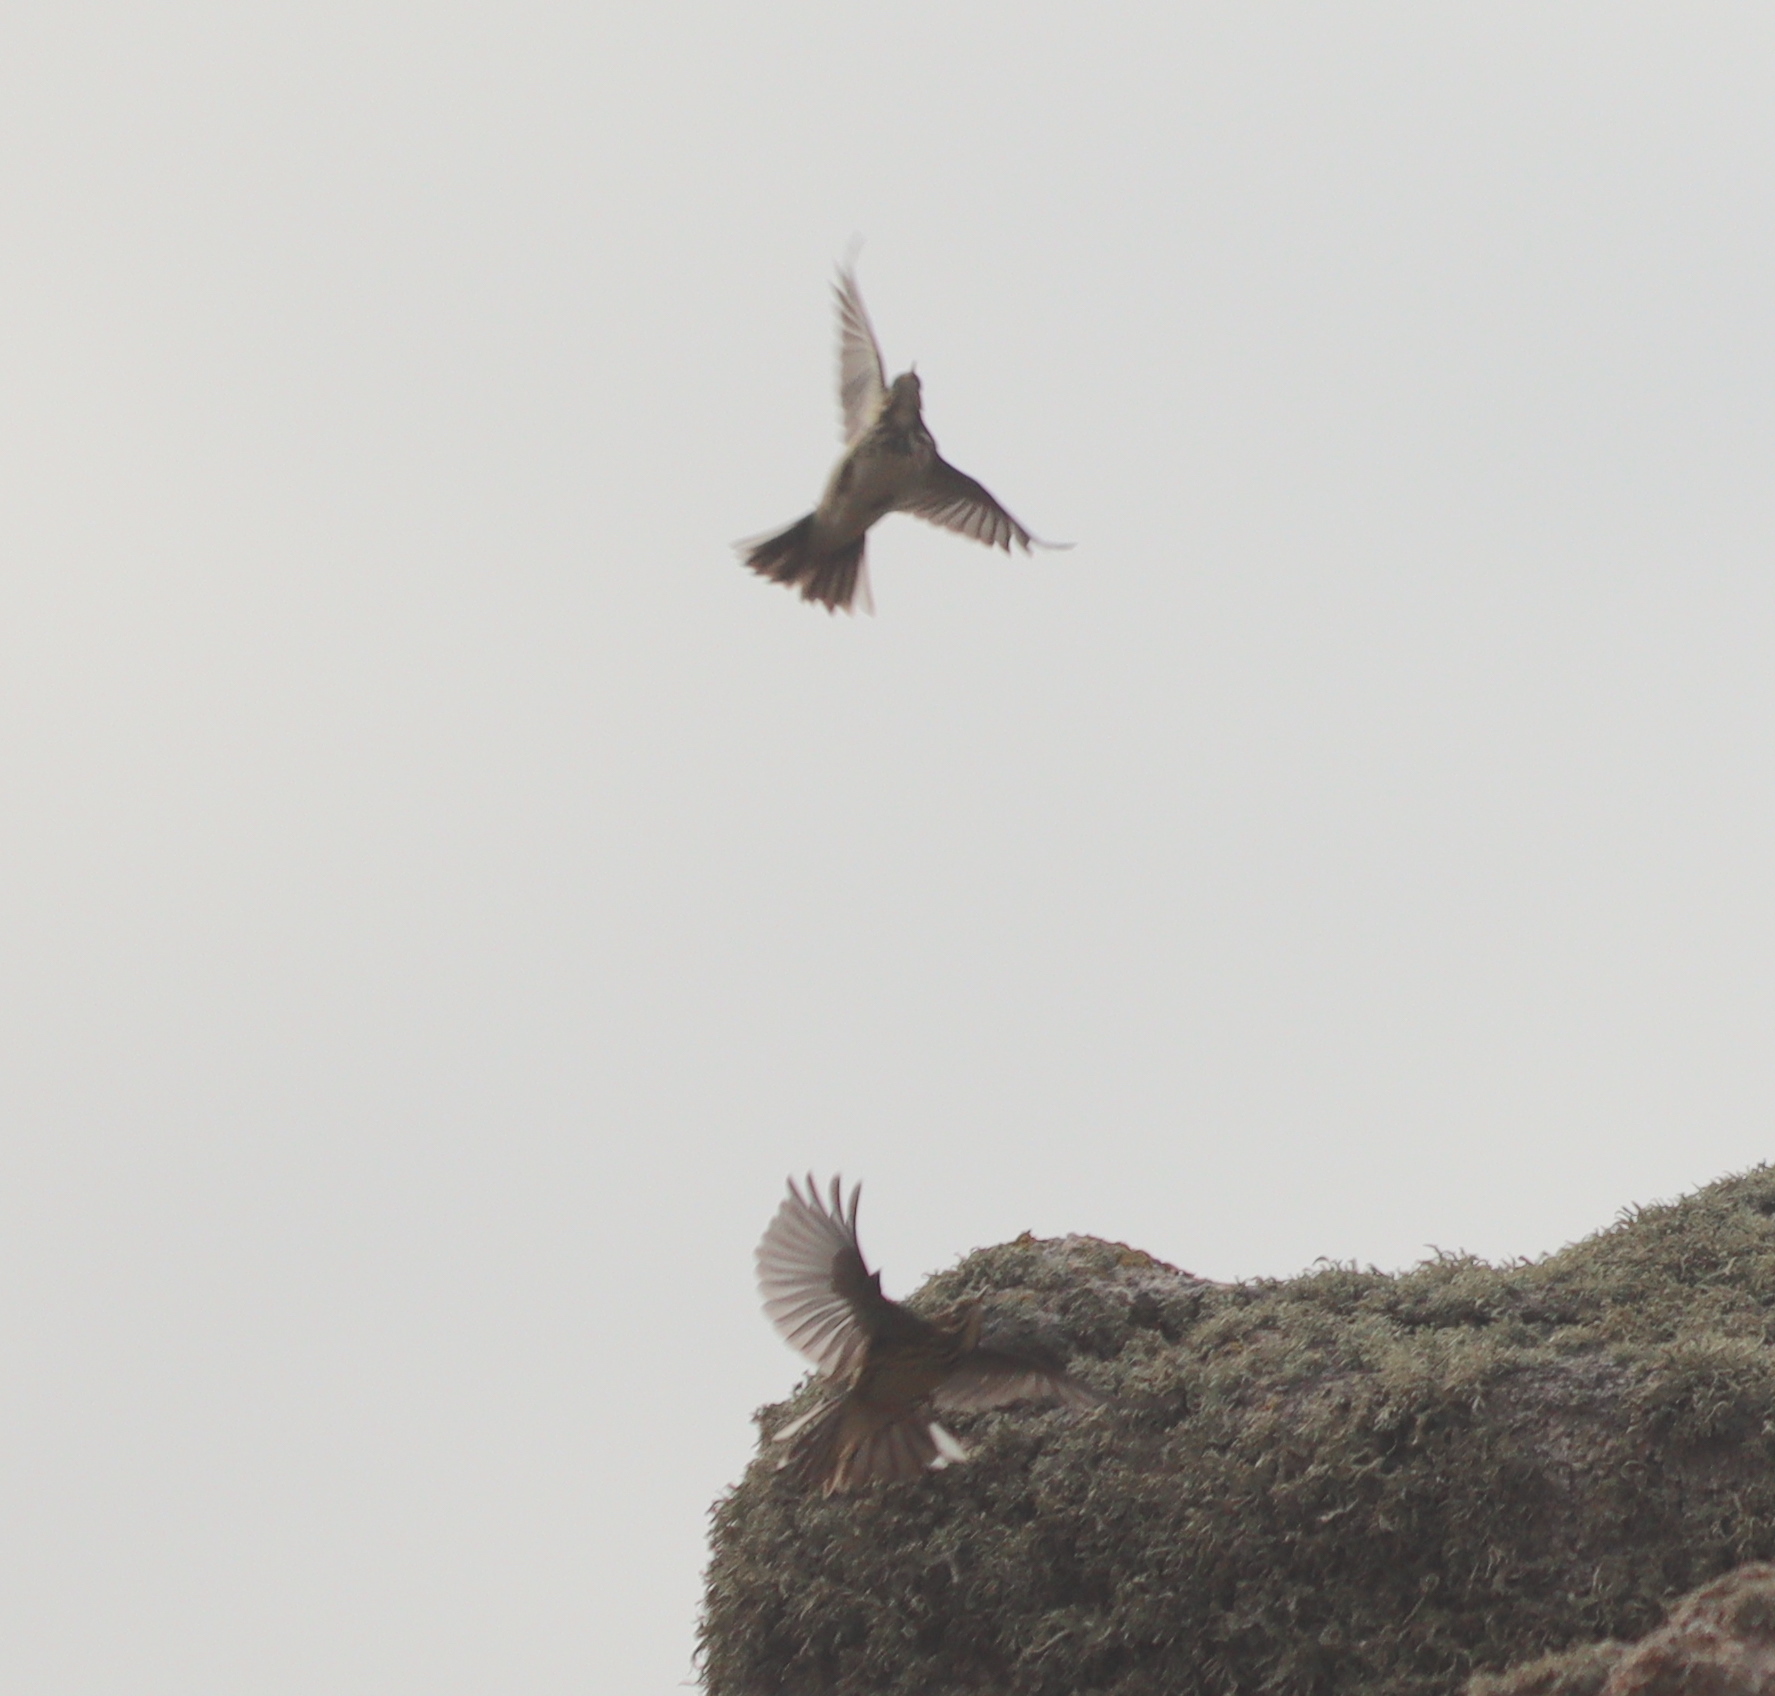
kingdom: Animalia
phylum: Chordata
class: Aves
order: Passeriformes
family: Motacillidae
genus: Anthus
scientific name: Anthus pratensis
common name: Meadow pipit
